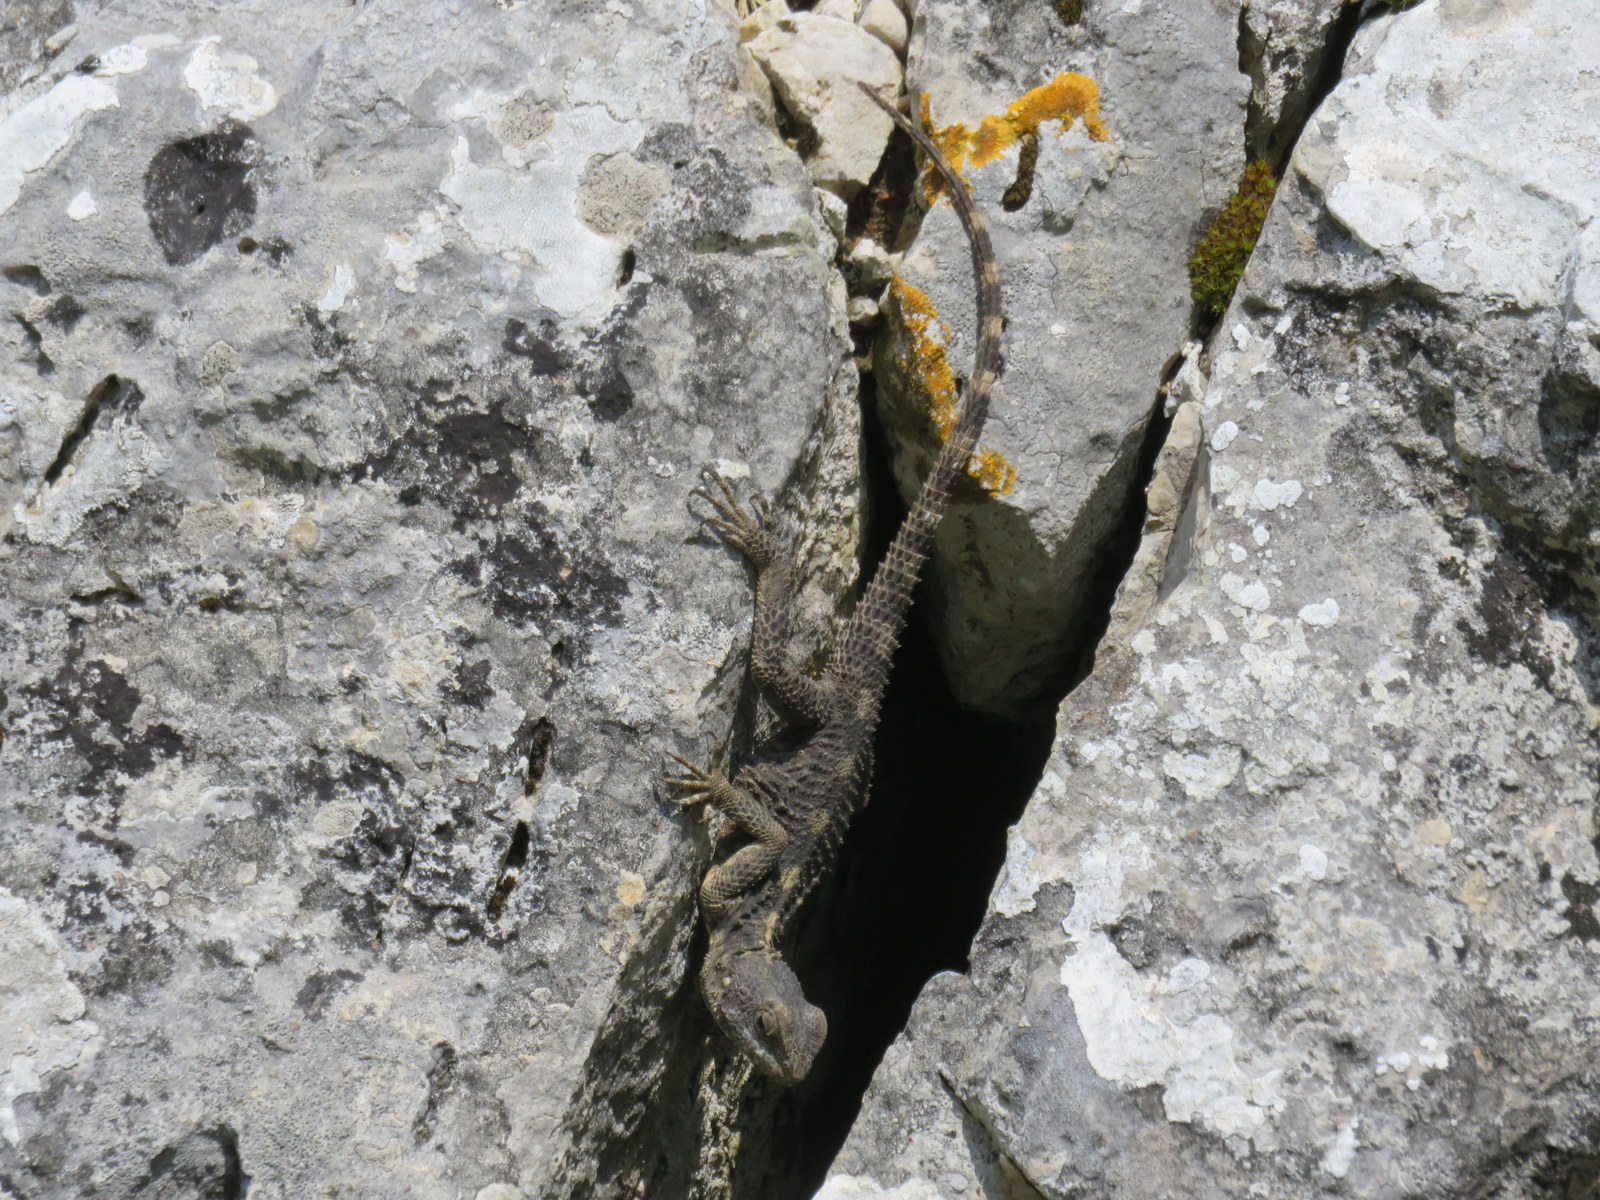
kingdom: Animalia
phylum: Chordata
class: Squamata
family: Agamidae
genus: Stellagama
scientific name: Stellagama stellio
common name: Starred agama
